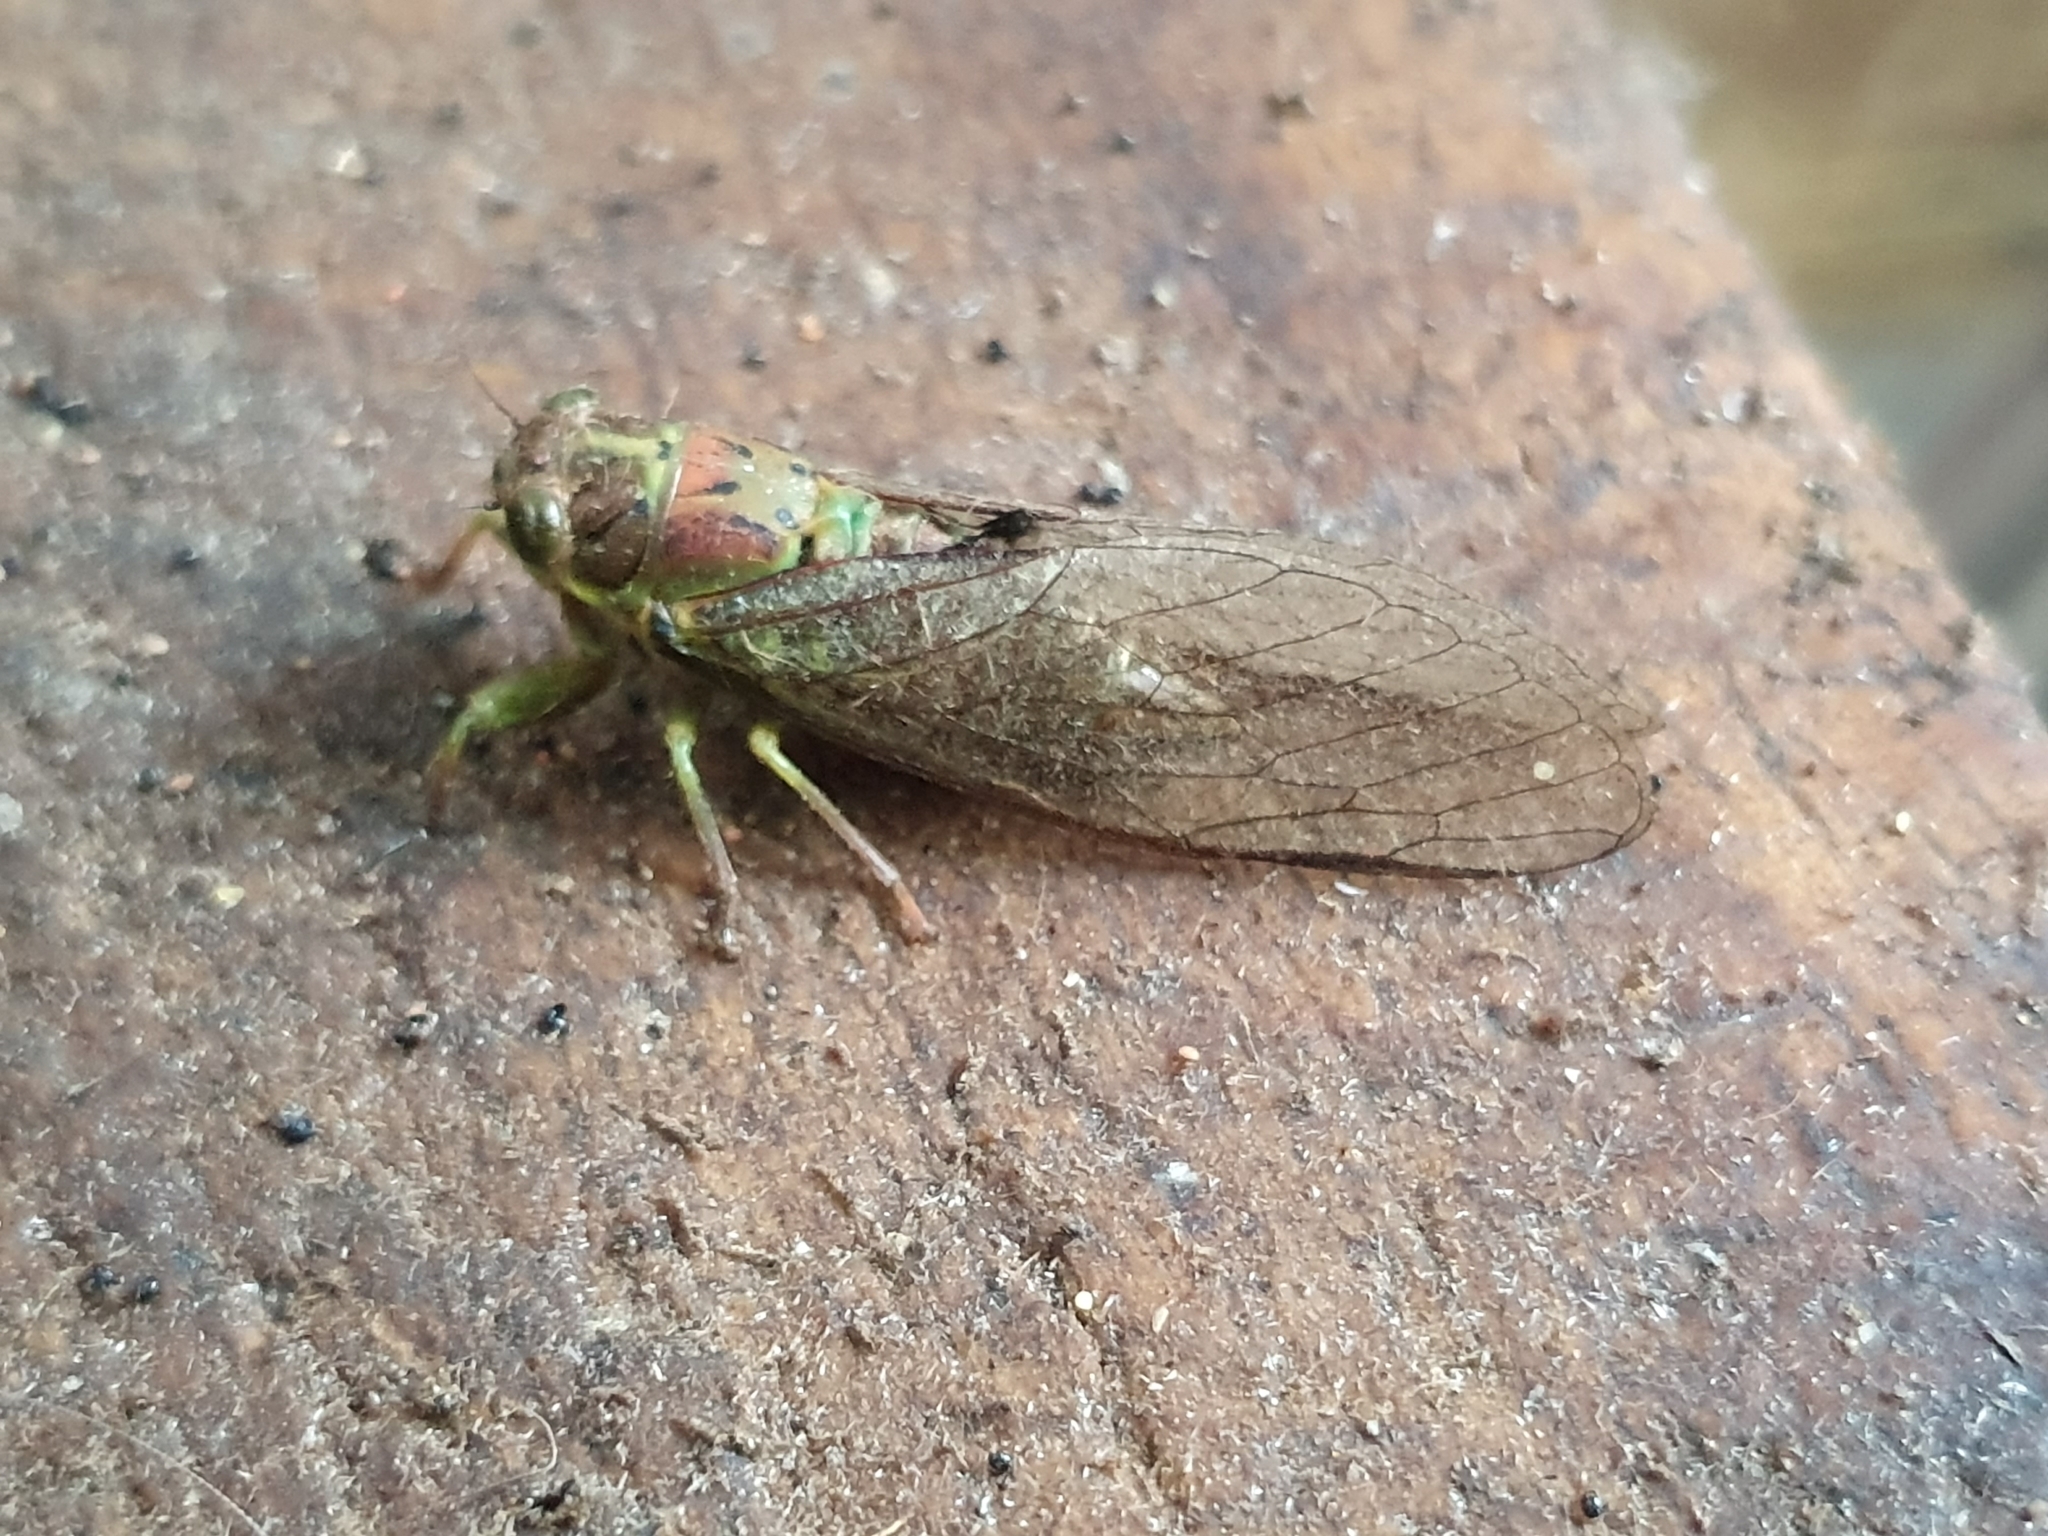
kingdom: Animalia
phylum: Arthropoda
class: Insecta
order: Hemiptera
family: Cicadidae
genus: Kikihia
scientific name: Kikihia scutellaris
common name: Lesser bronze cicada
